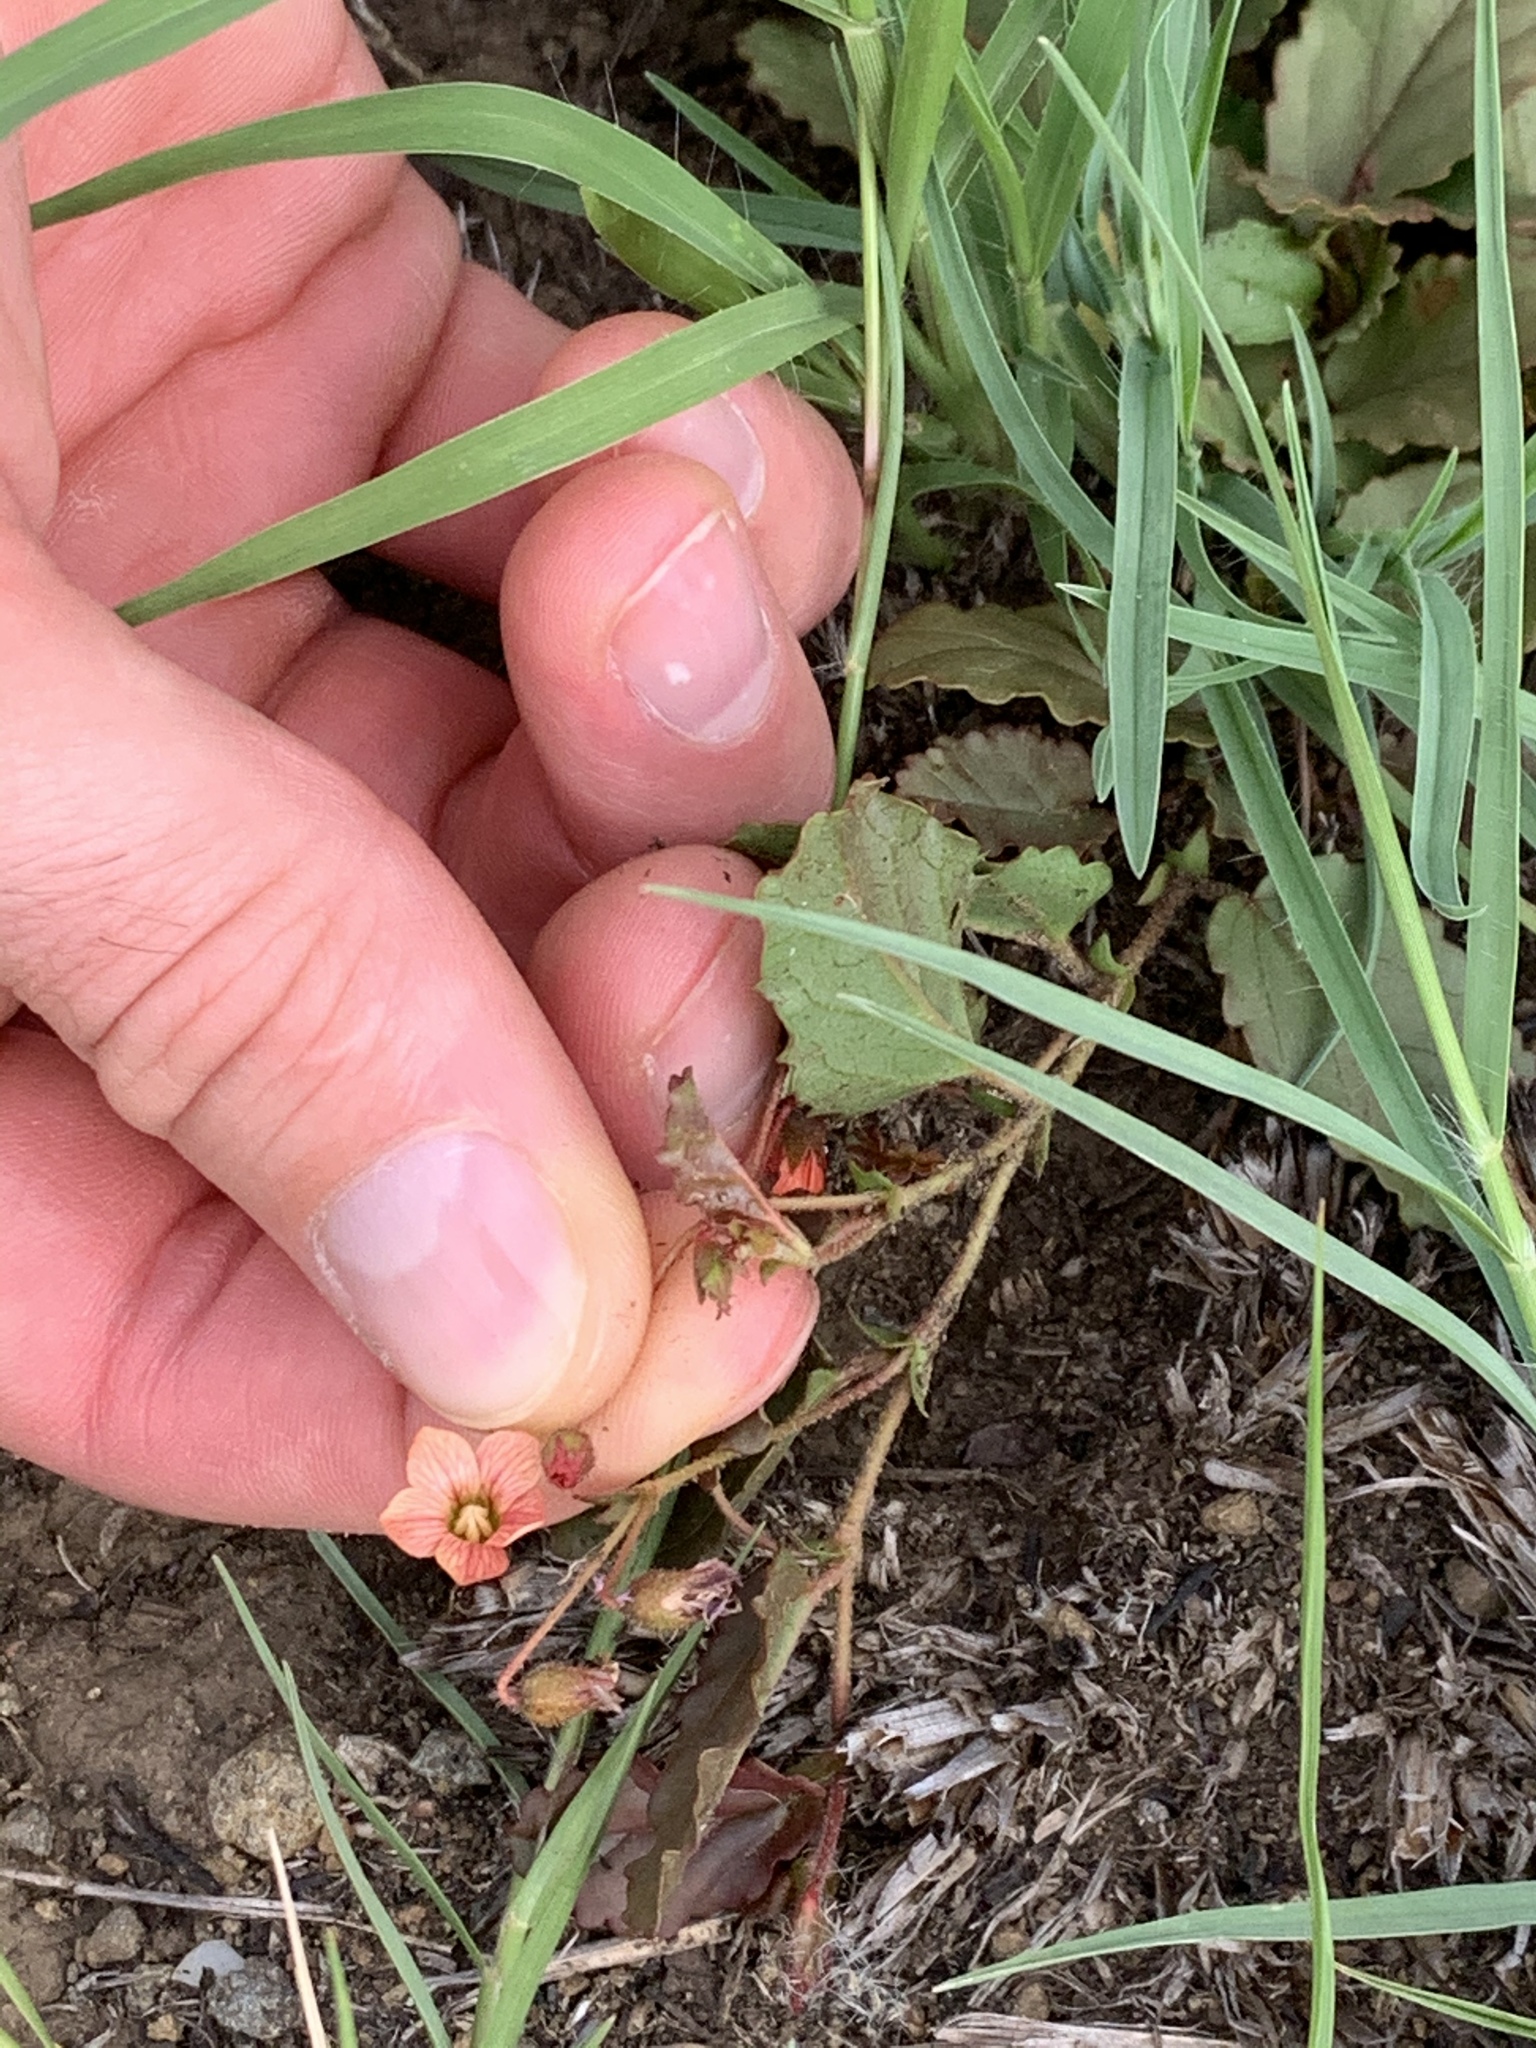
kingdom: Plantae
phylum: Tracheophyta
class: Magnoliopsida
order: Malvales
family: Malvaceae
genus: Hermannia
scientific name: Hermannia depressa
